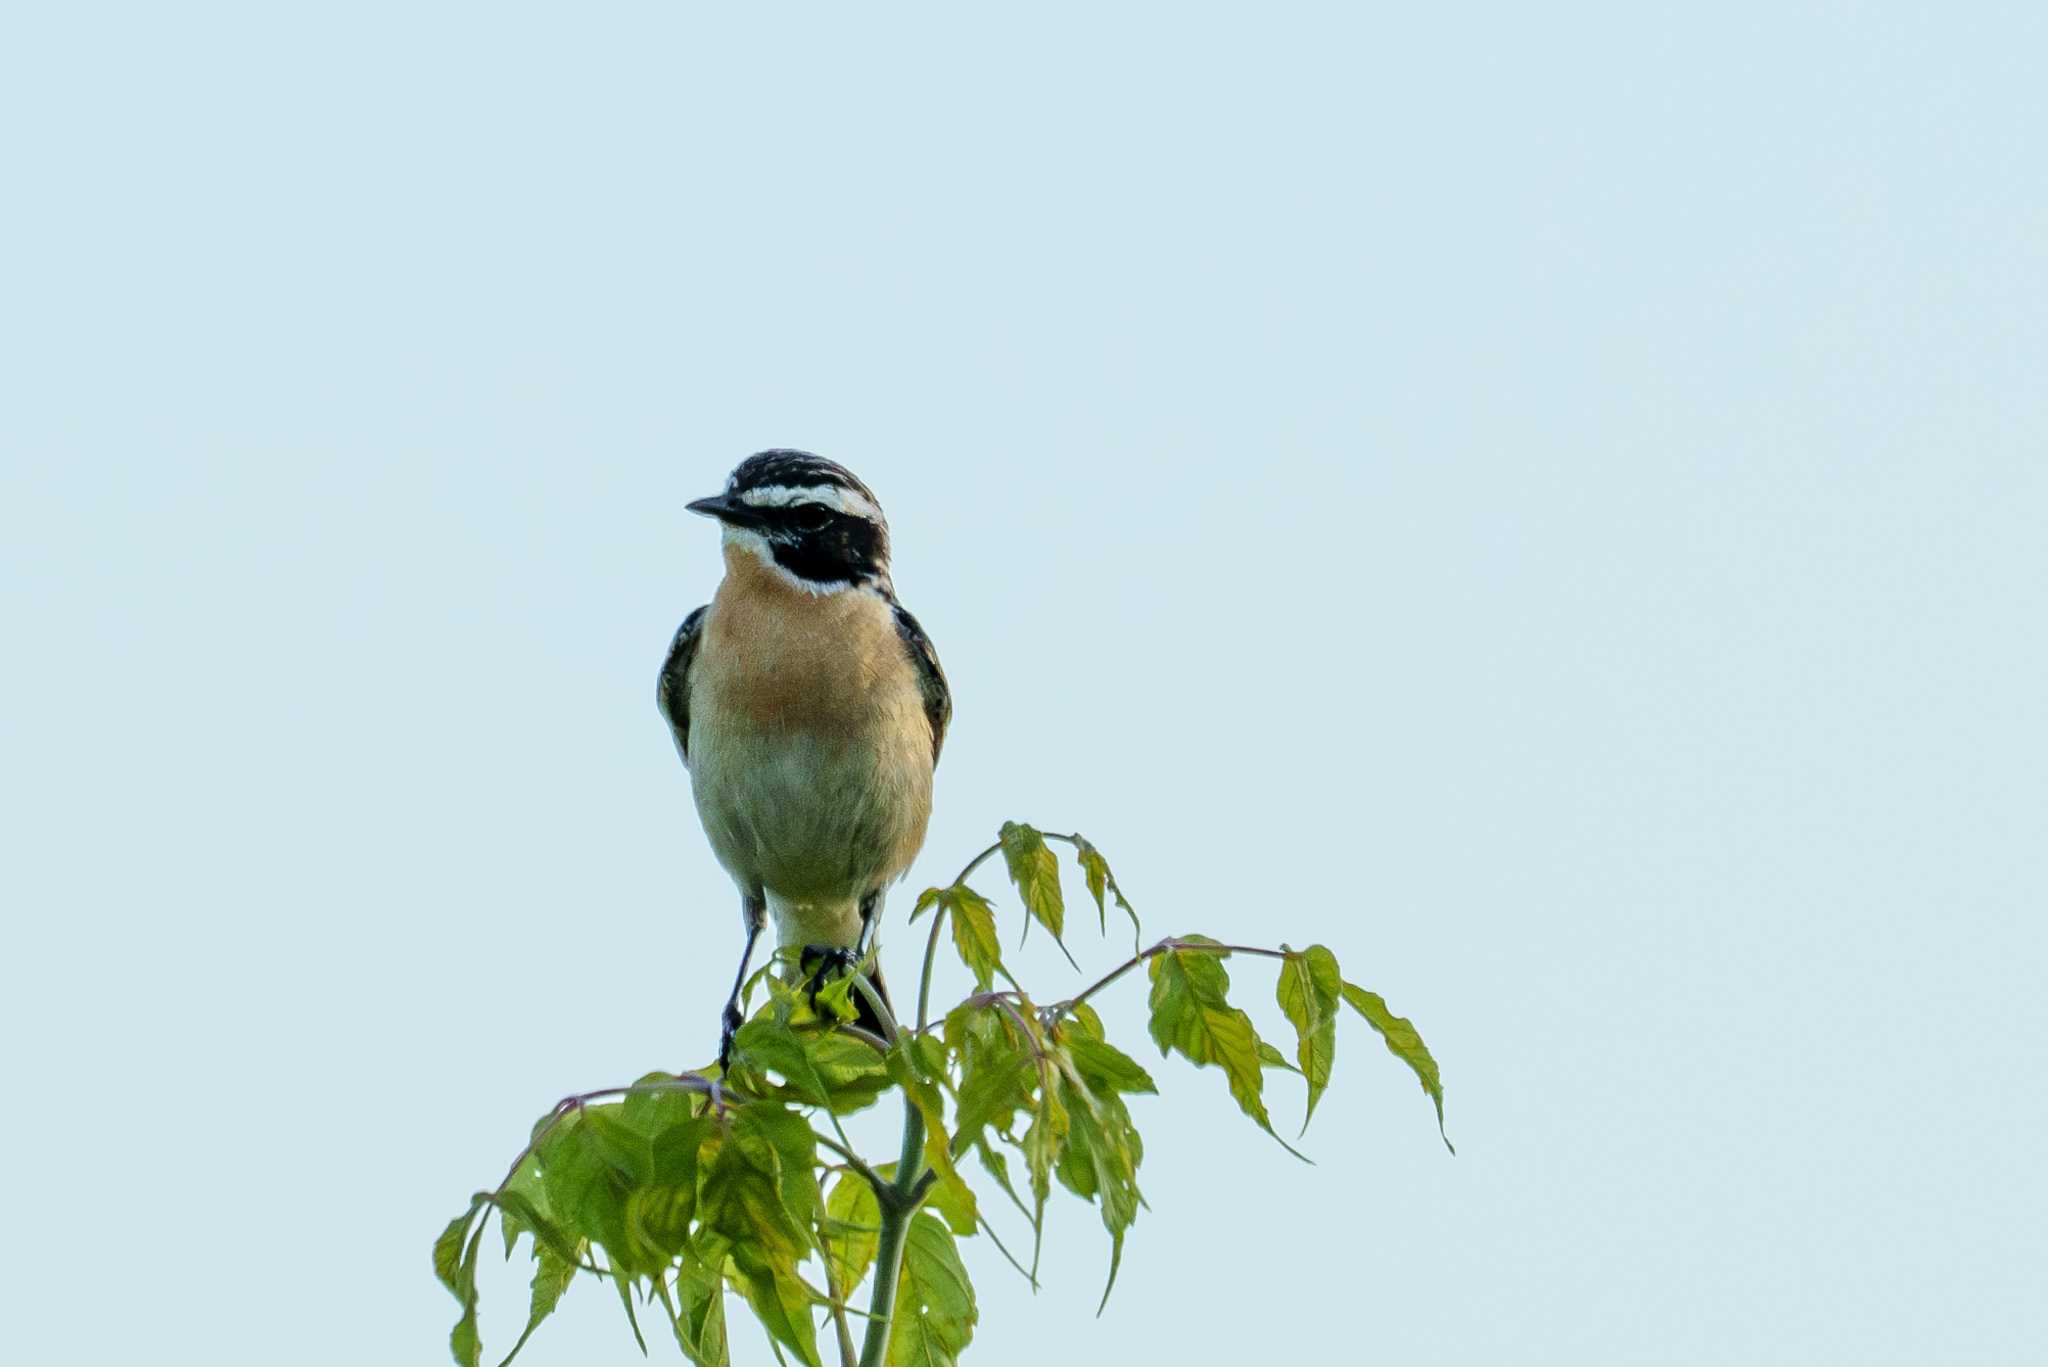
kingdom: Animalia
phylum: Chordata
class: Aves
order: Passeriformes
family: Muscicapidae
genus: Saxicola
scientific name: Saxicola rubetra
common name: Whinchat
